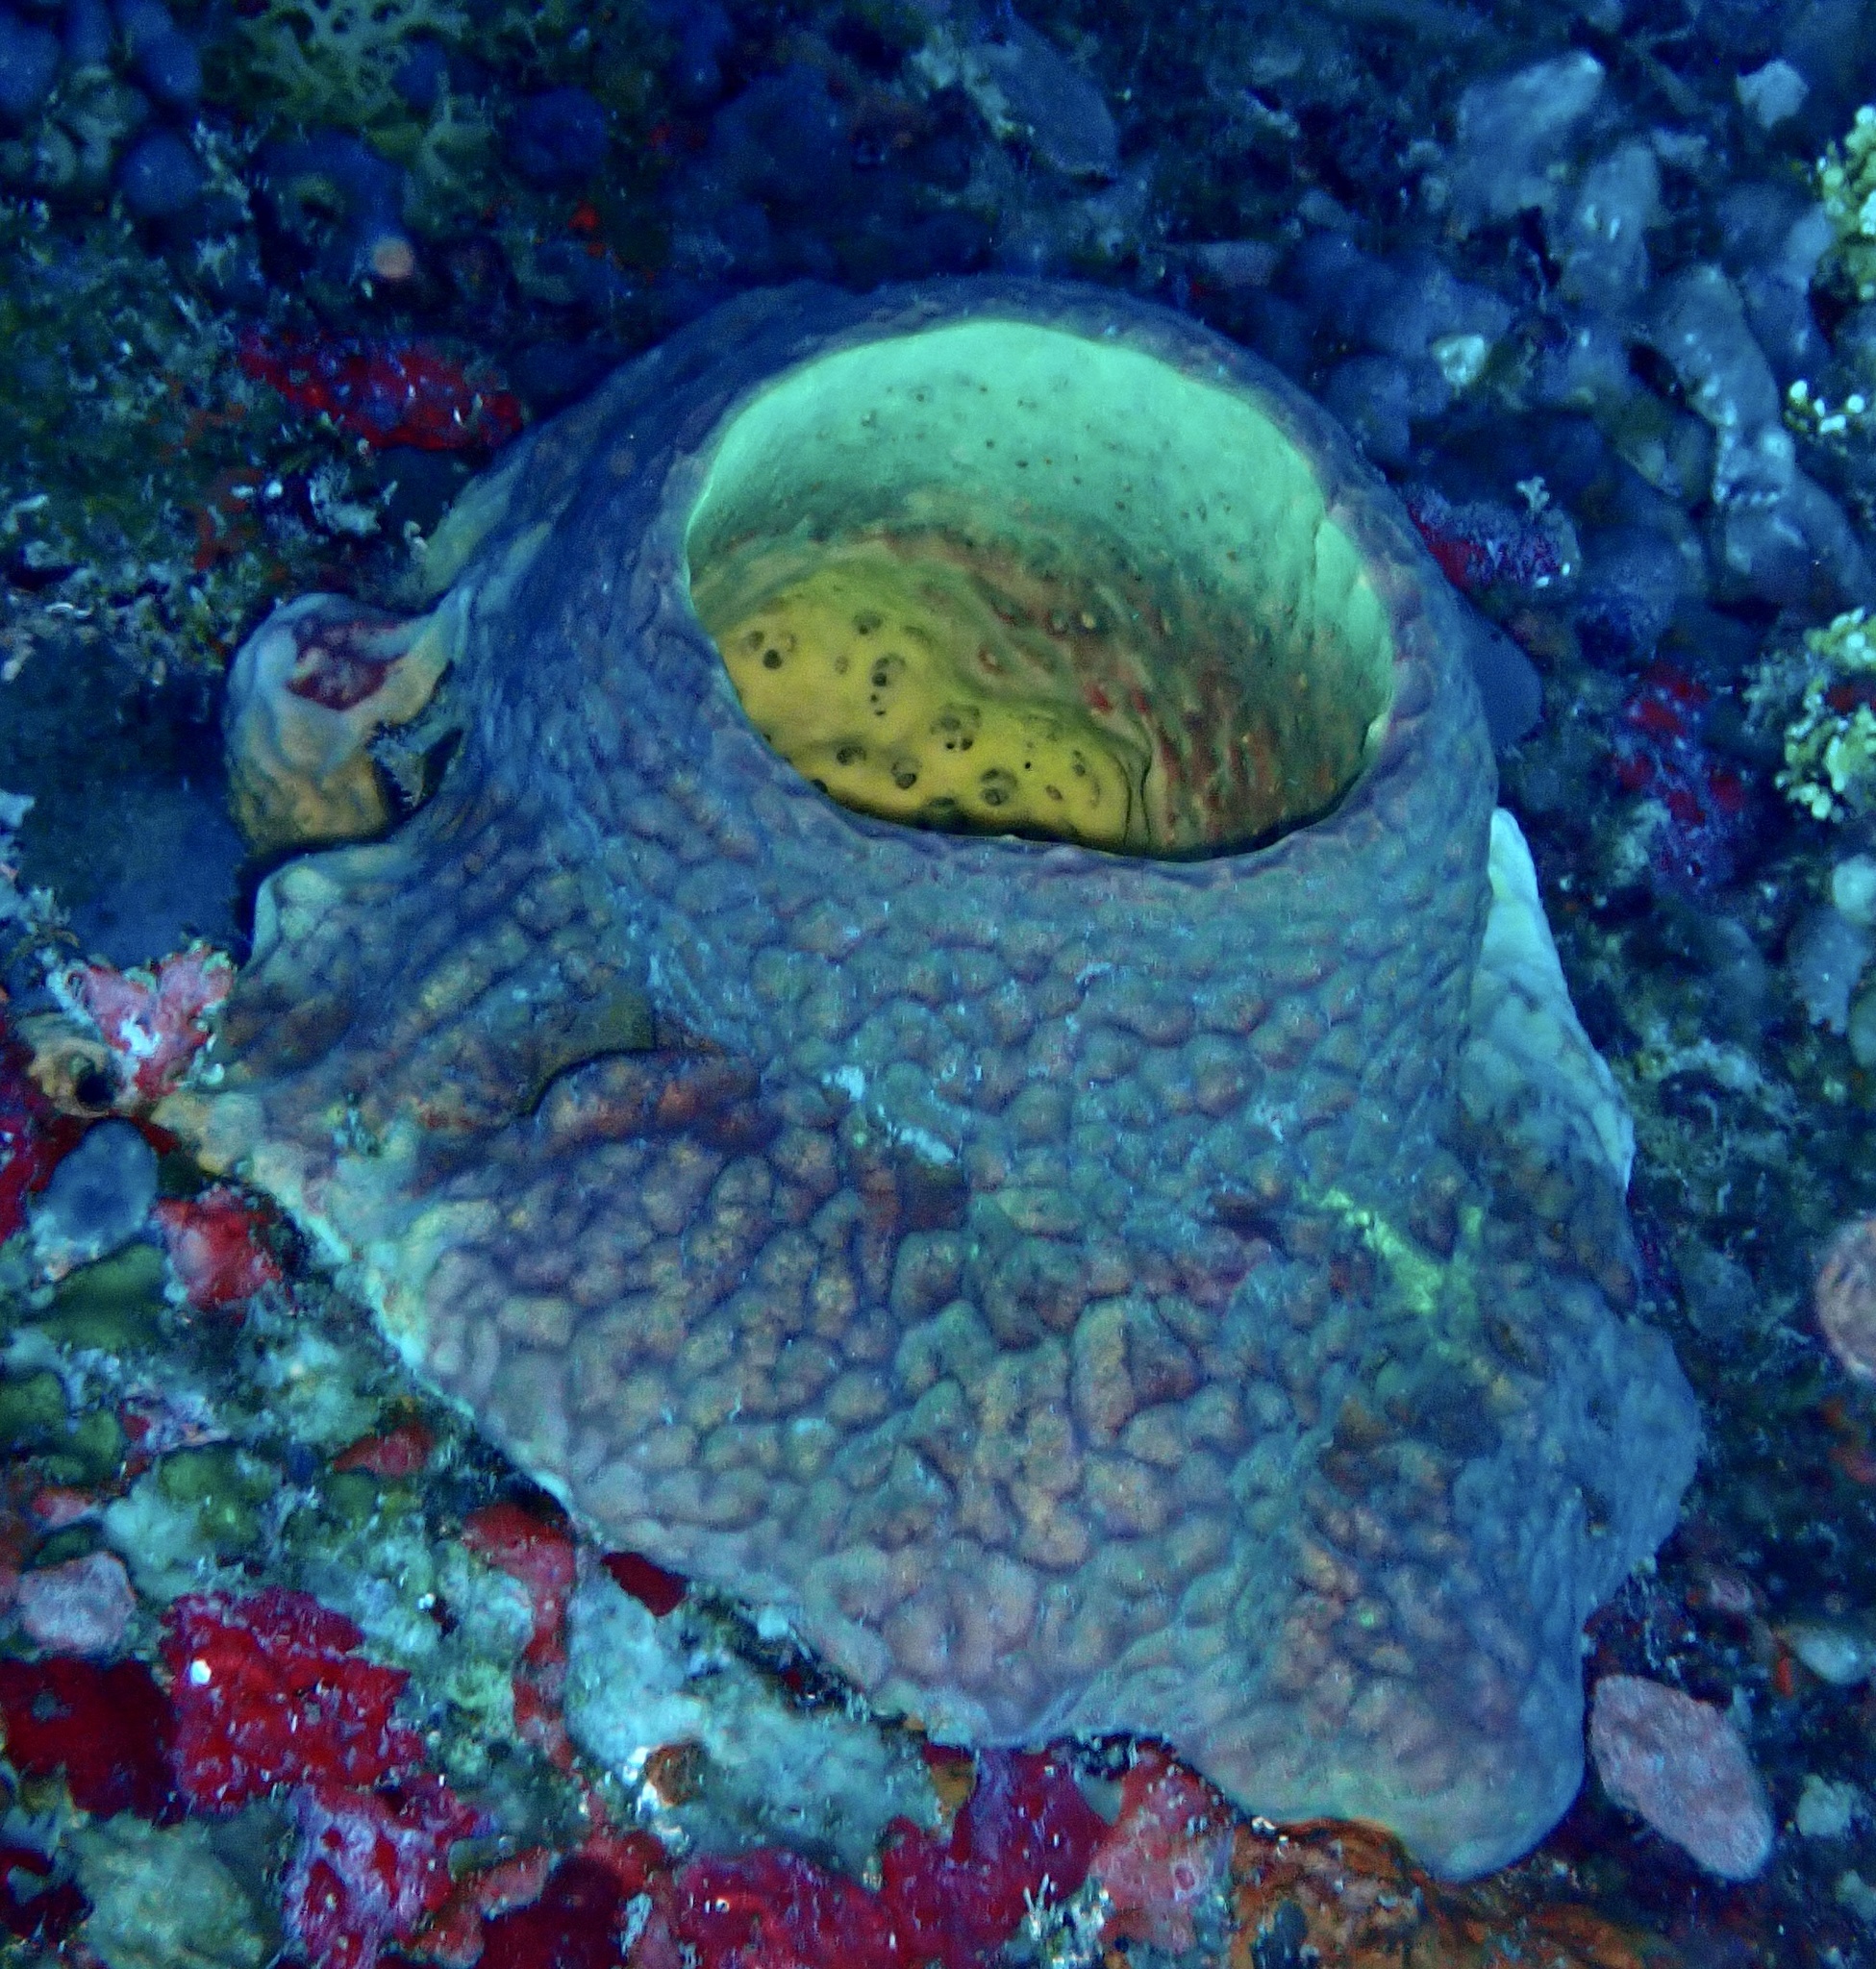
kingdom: Animalia
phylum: Porifera
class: Demospongiae
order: Verongiida
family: Aplysinidae
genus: Verongula
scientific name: Verongula reiswigi
